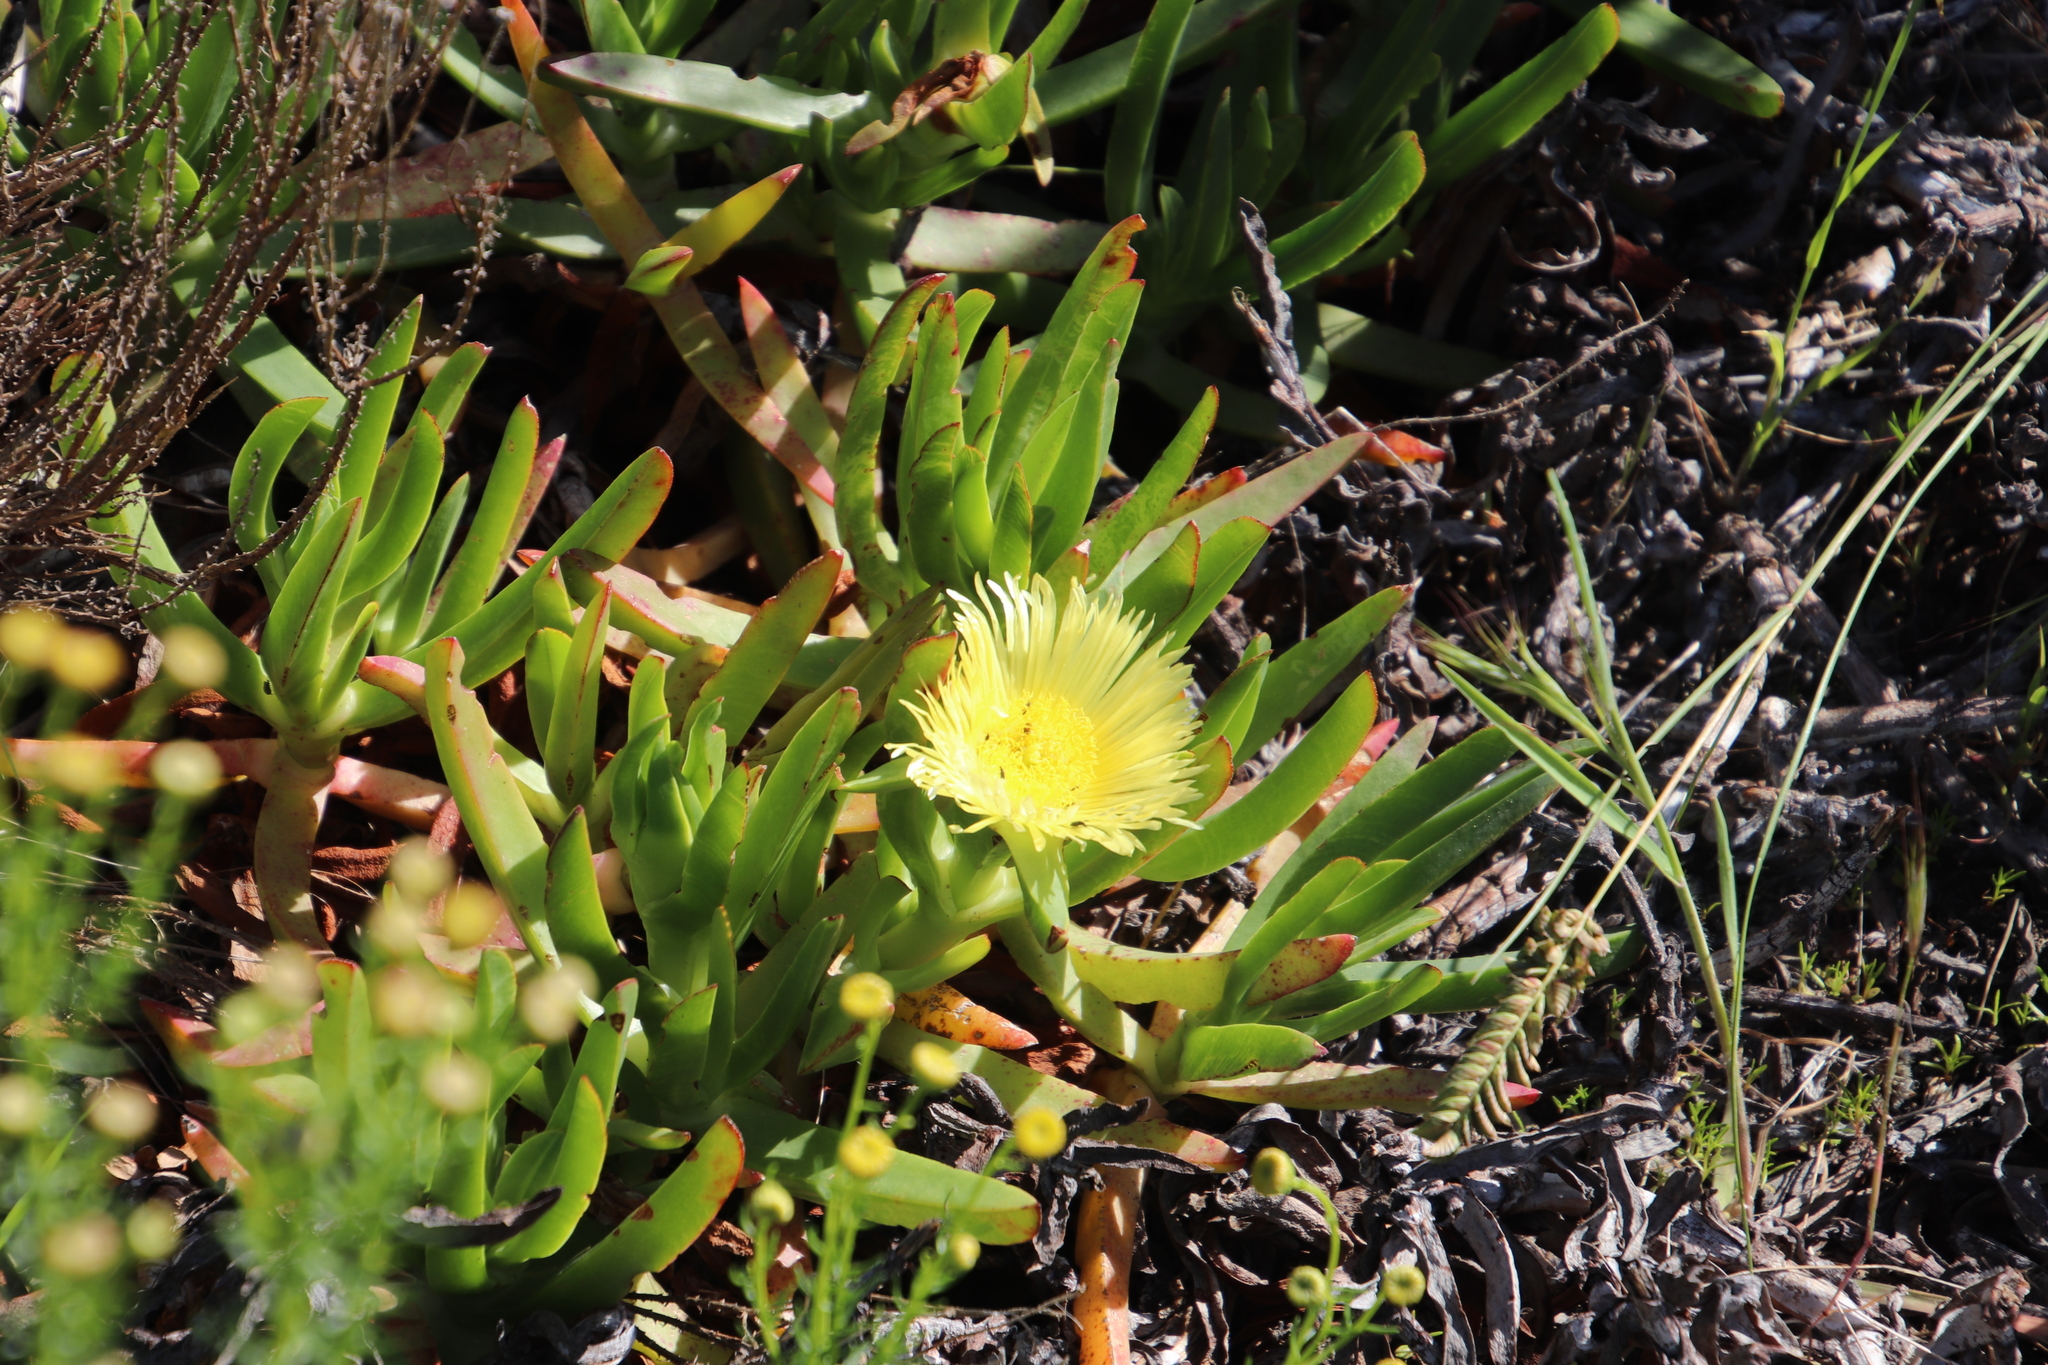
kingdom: Plantae
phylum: Tracheophyta
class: Magnoliopsida
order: Caryophyllales
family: Aizoaceae
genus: Carpobrotus
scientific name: Carpobrotus edulis
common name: Hottentot-fig
